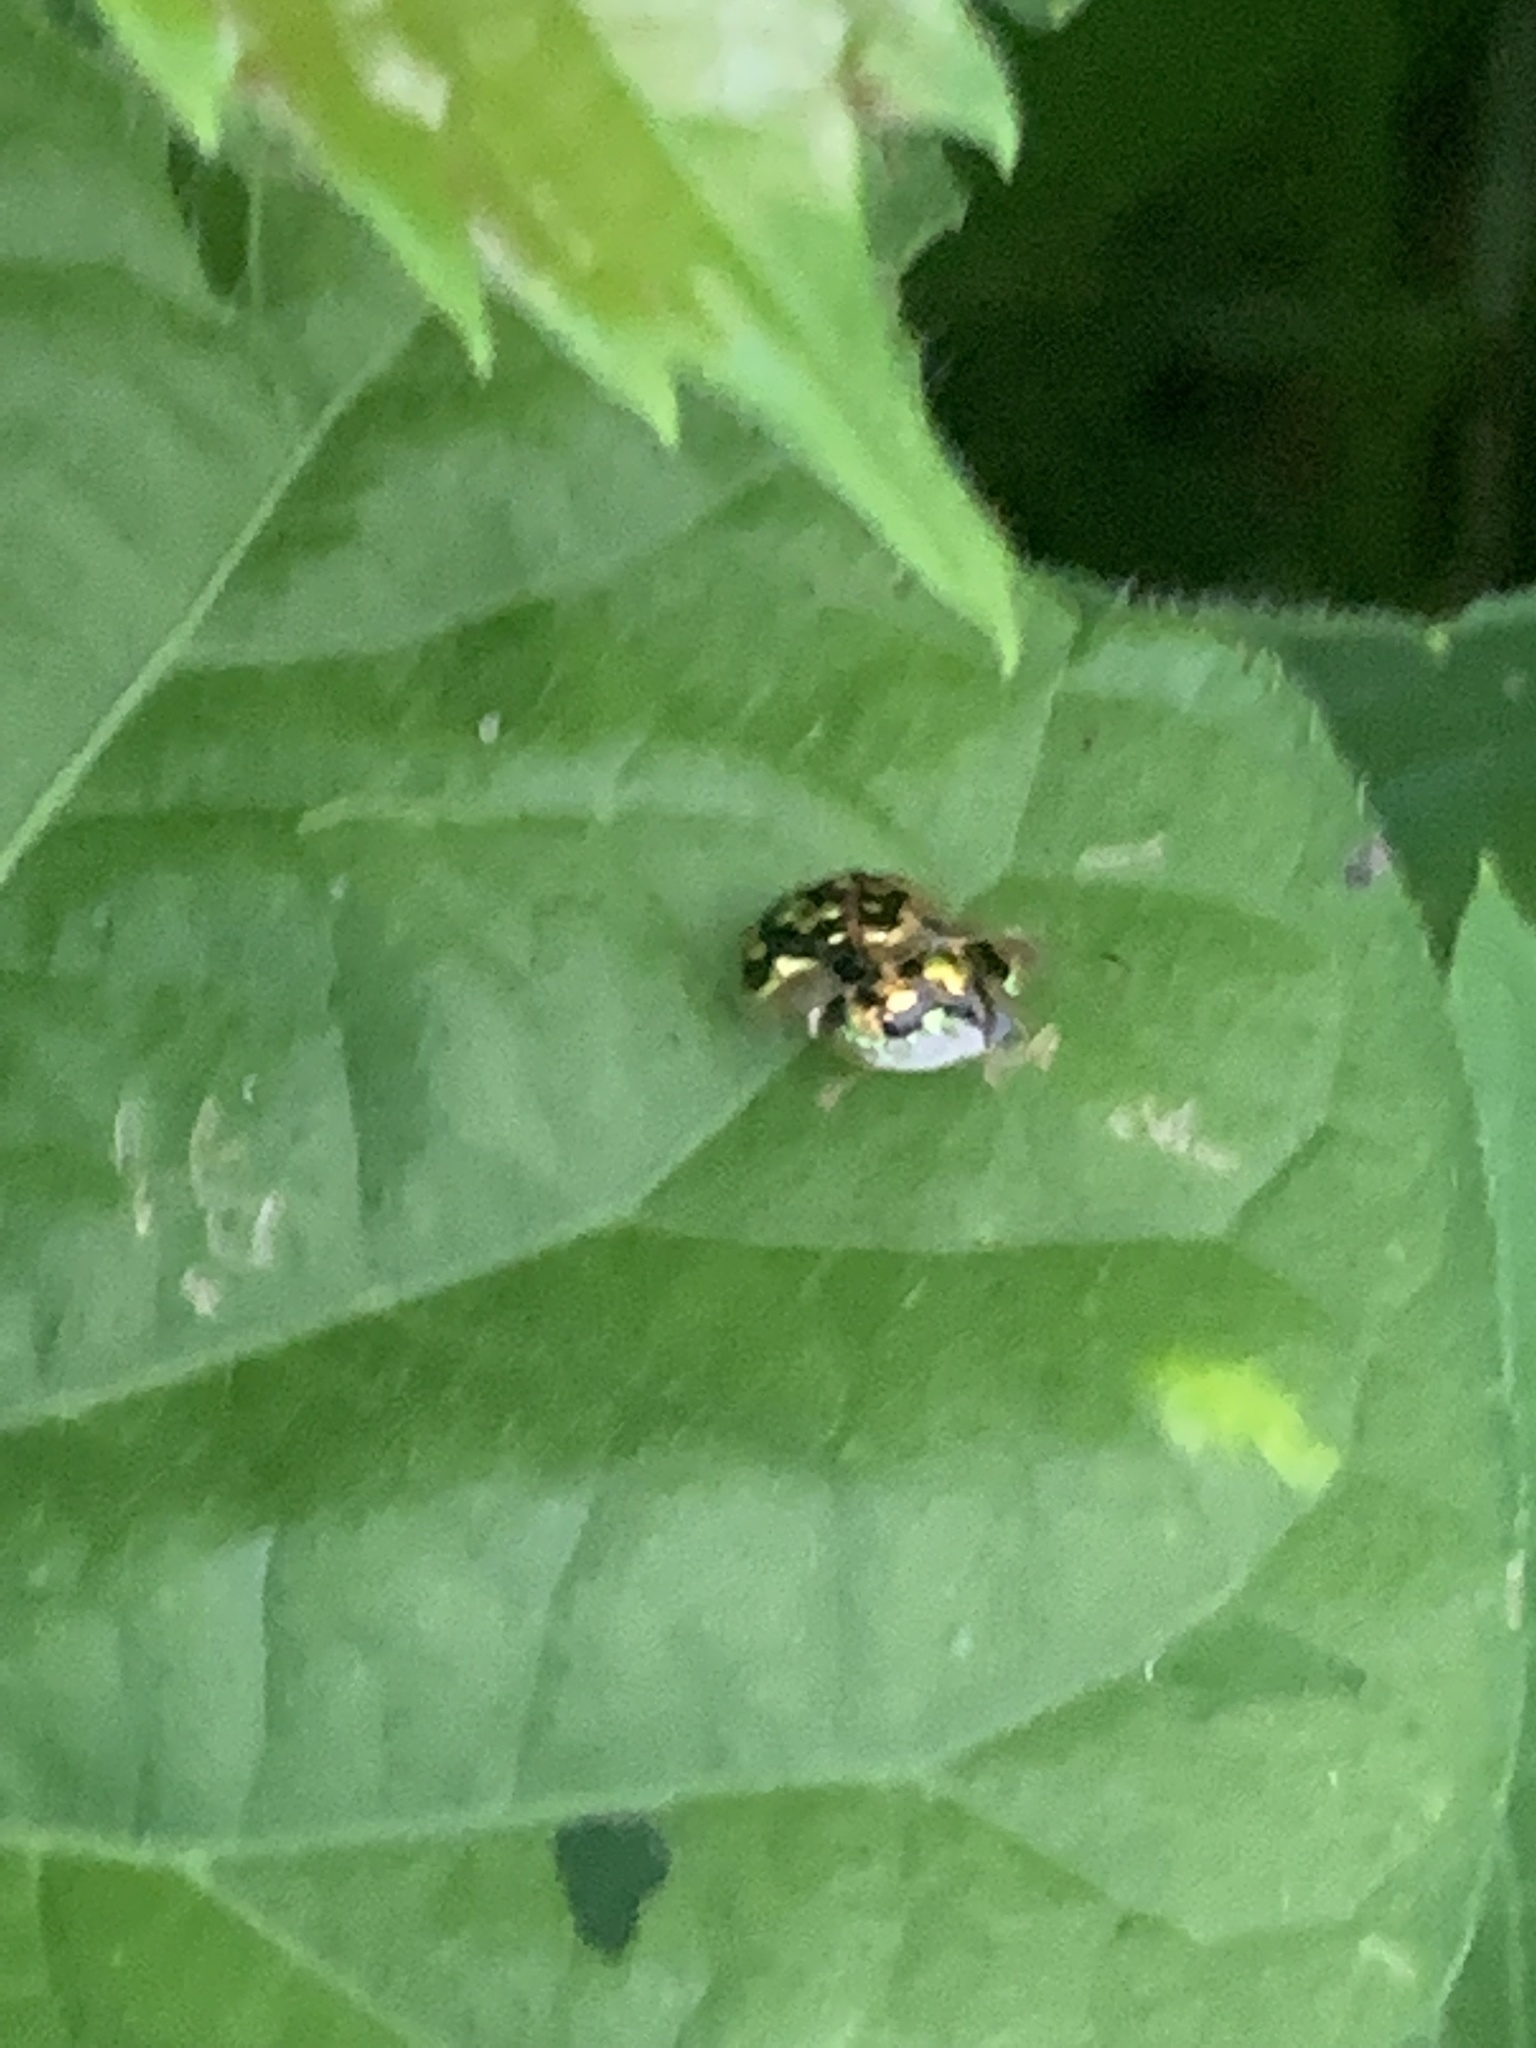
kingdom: Animalia
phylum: Arthropoda
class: Insecta
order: Coleoptera
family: Chrysomelidae
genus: Deloyala
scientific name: Deloyala guttata
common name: Mottled tortoise beetle
